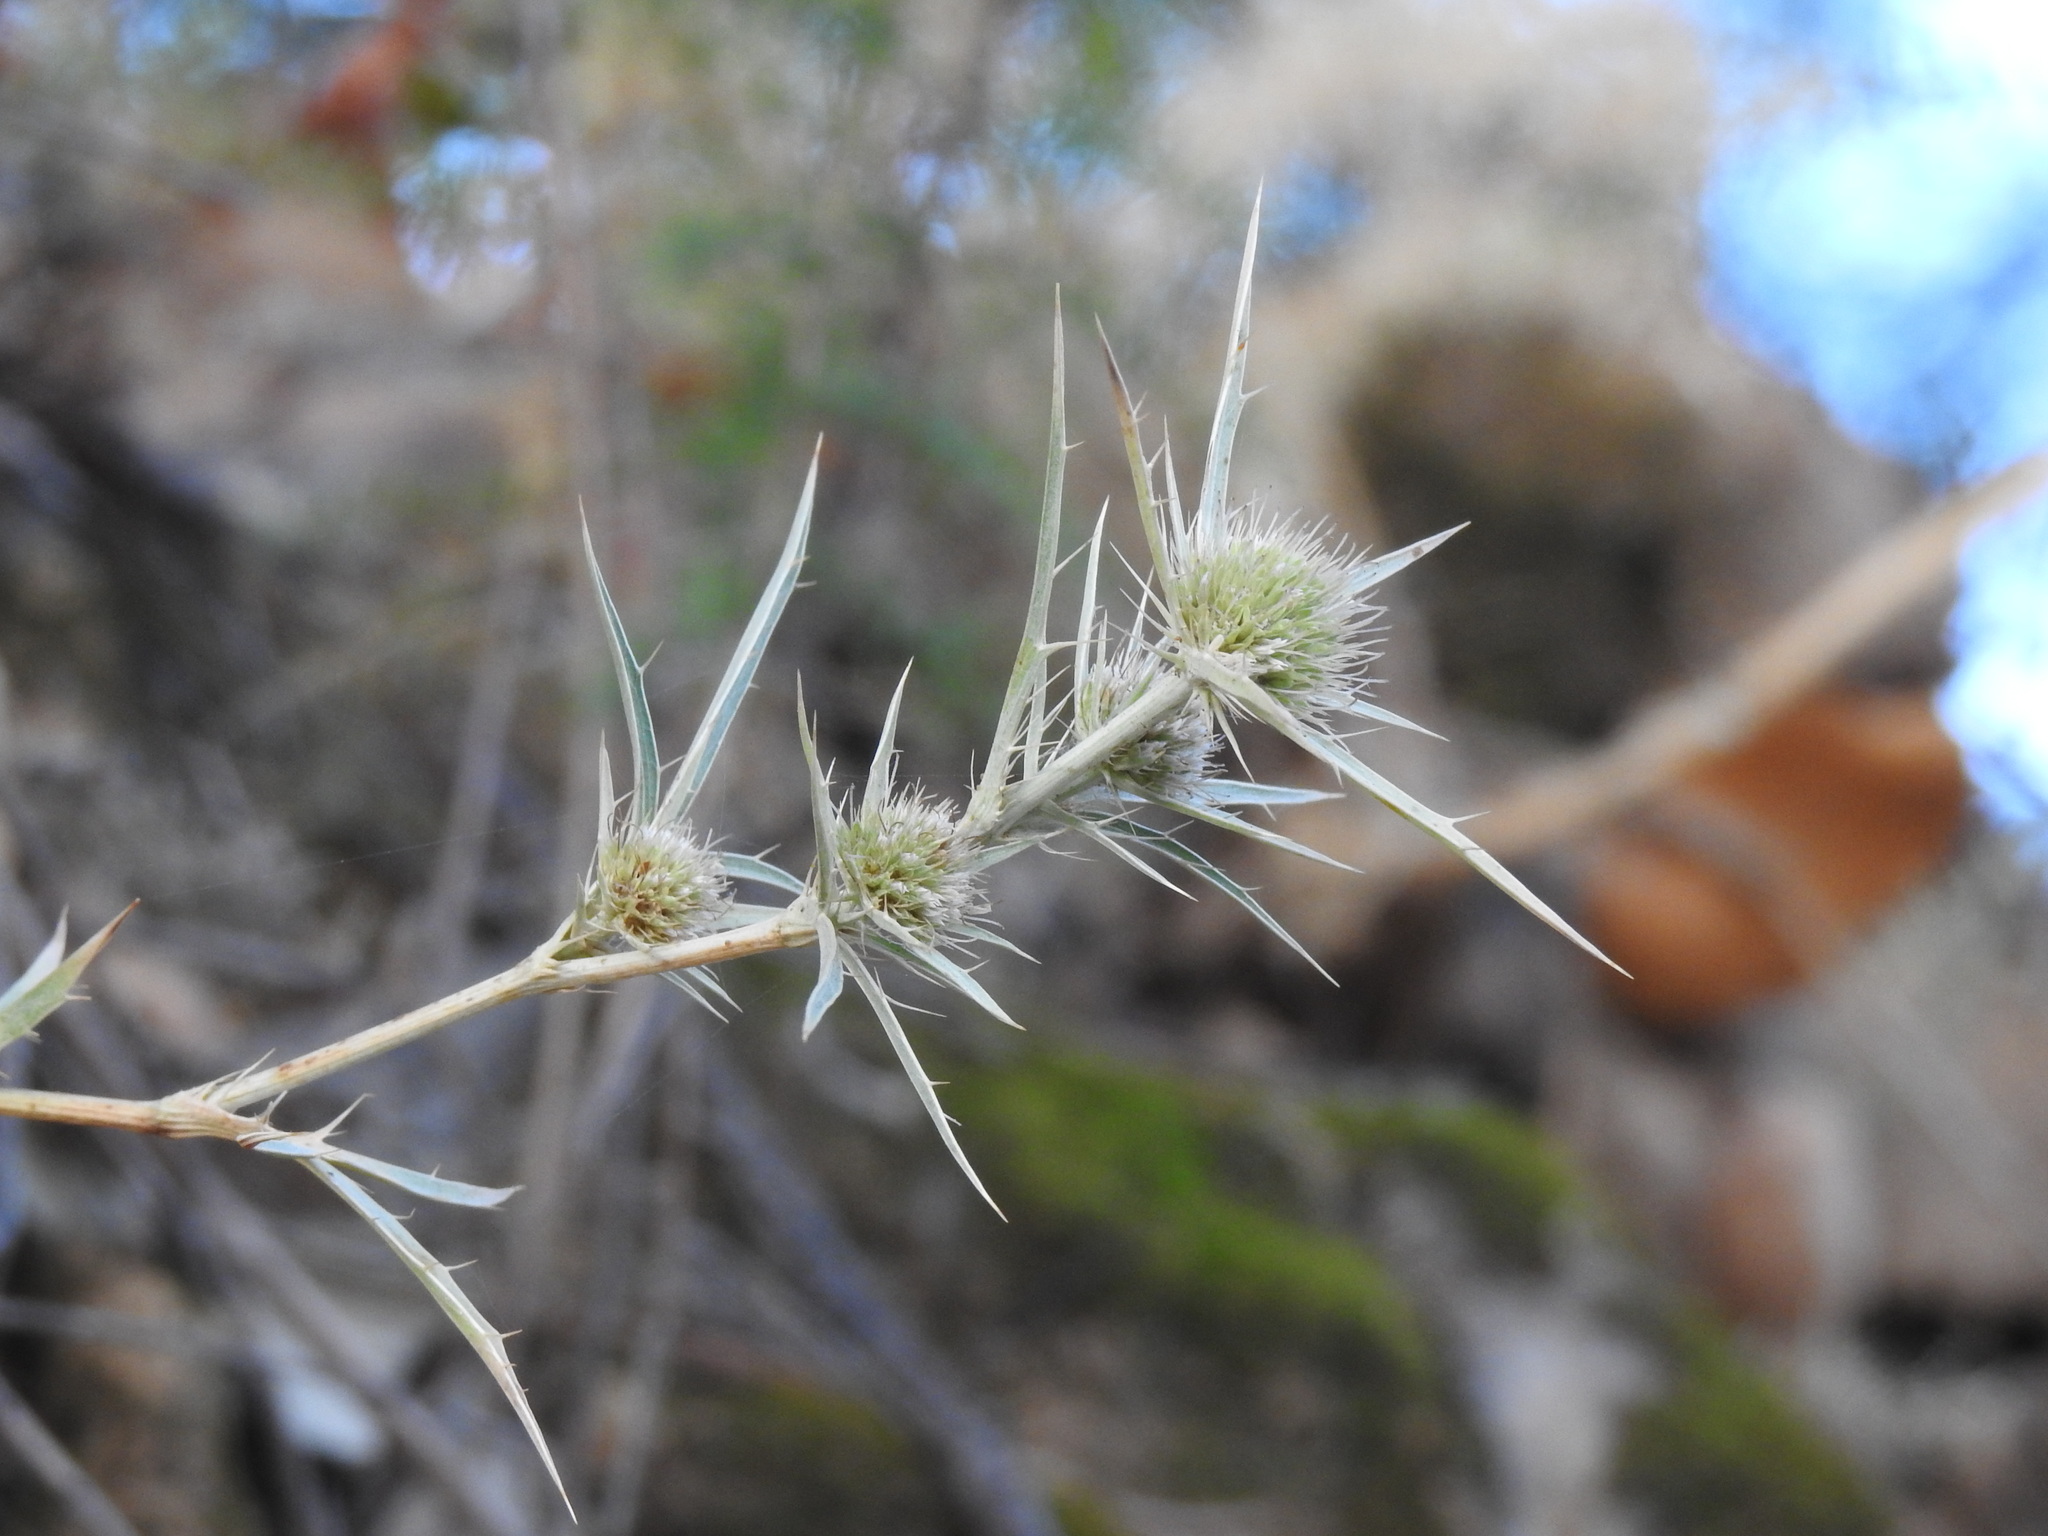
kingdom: Plantae
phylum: Tracheophyta
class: Magnoliopsida
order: Apiales
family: Apiaceae
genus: Eryngium
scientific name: Eryngium campestre
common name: Field eryngo
